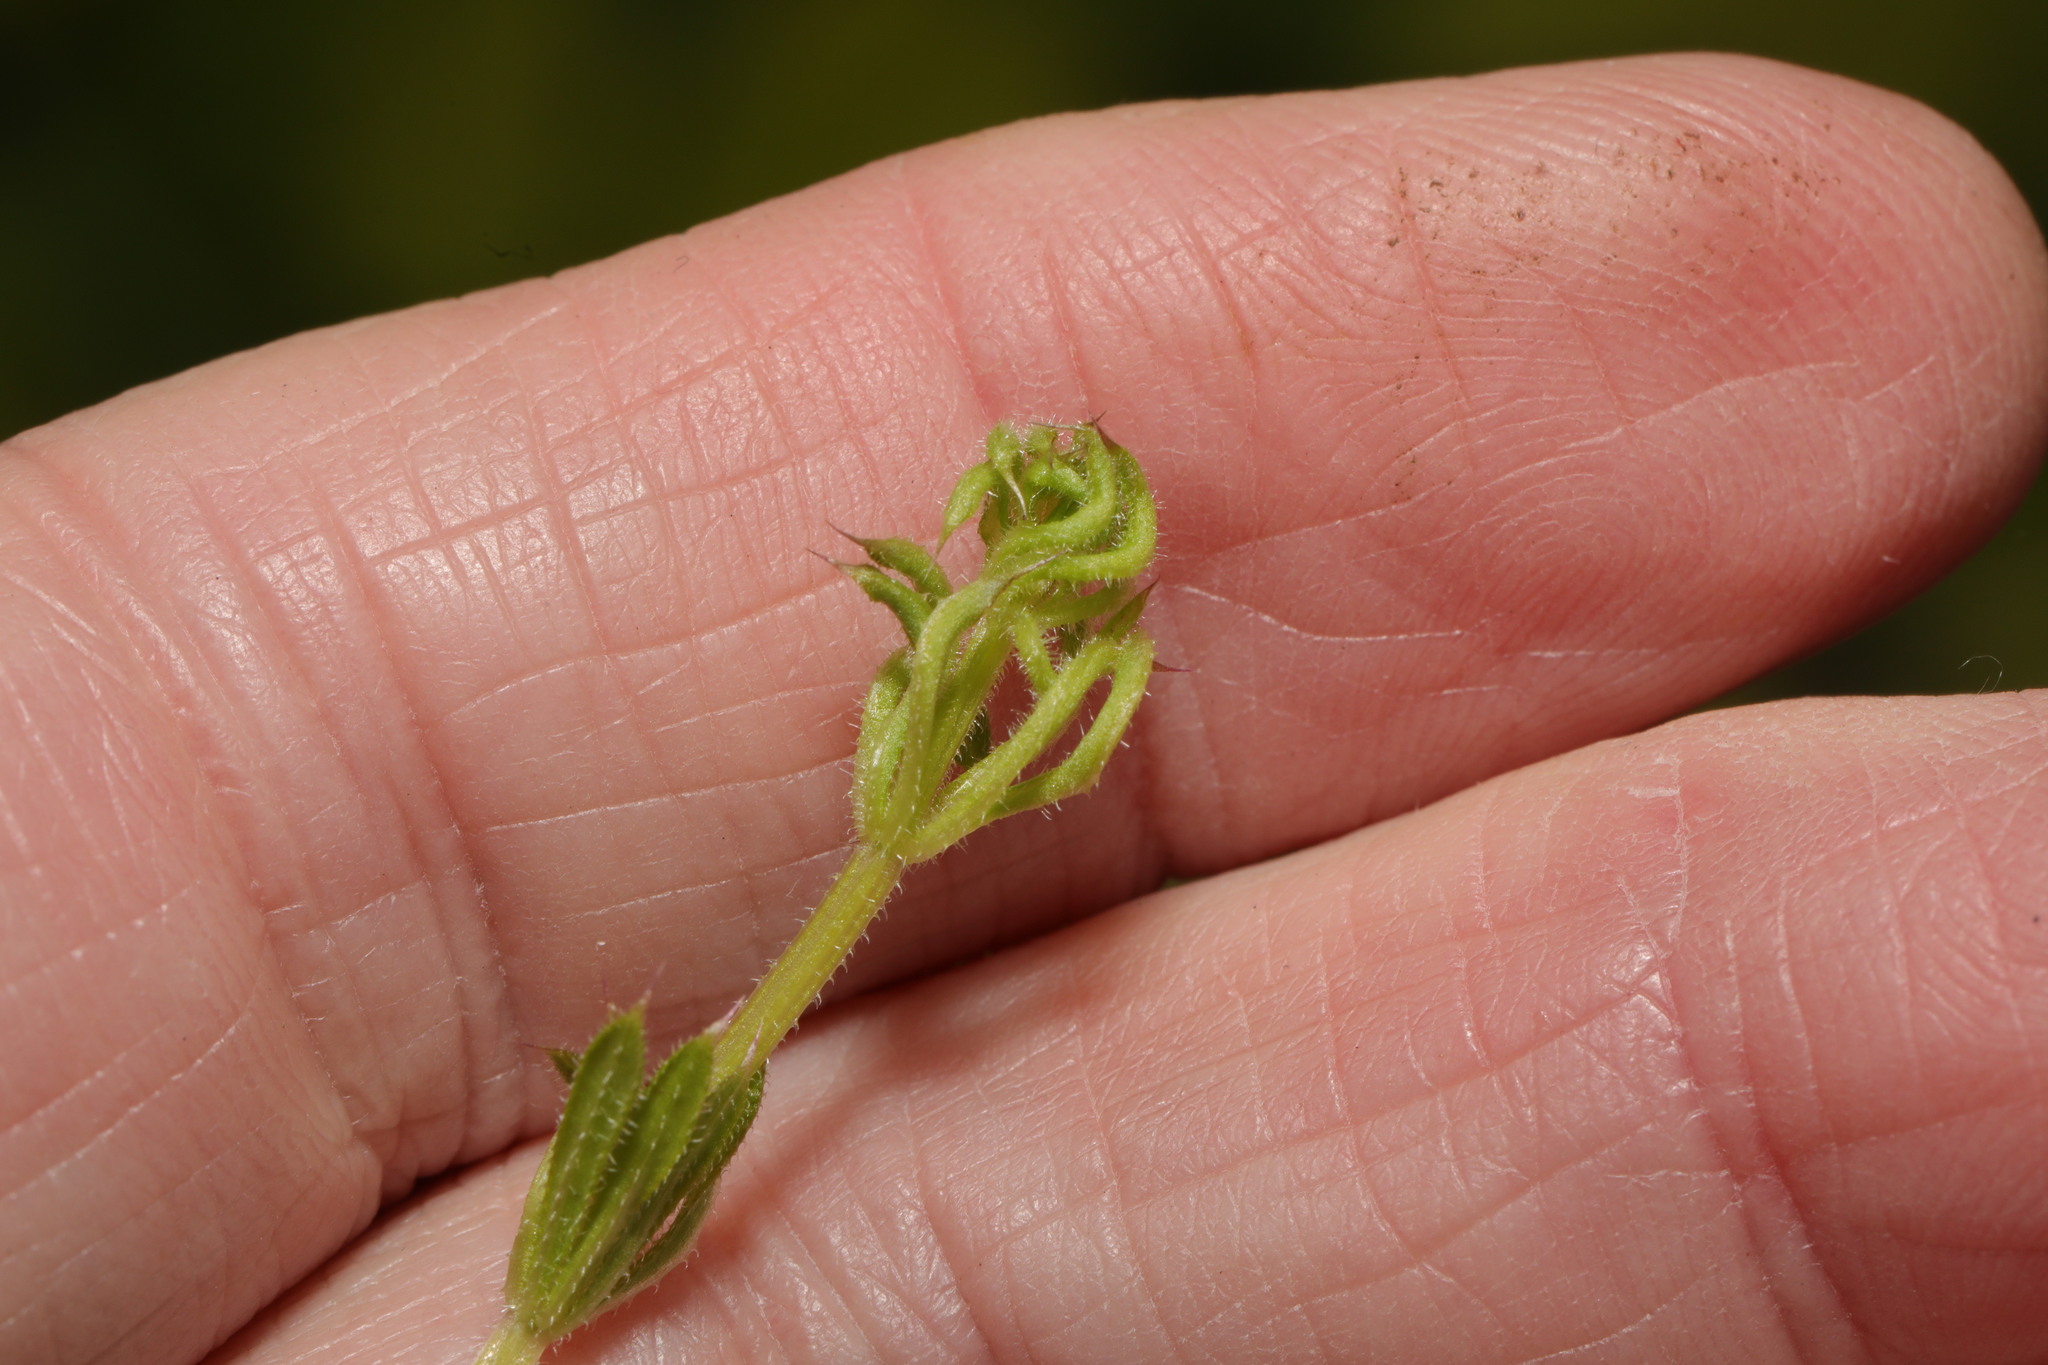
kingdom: Animalia
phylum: Arthropoda
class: Arachnida
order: Trombidiformes
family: Eriophyidae
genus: Cecidophyes
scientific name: Cecidophyes rouhollahi
